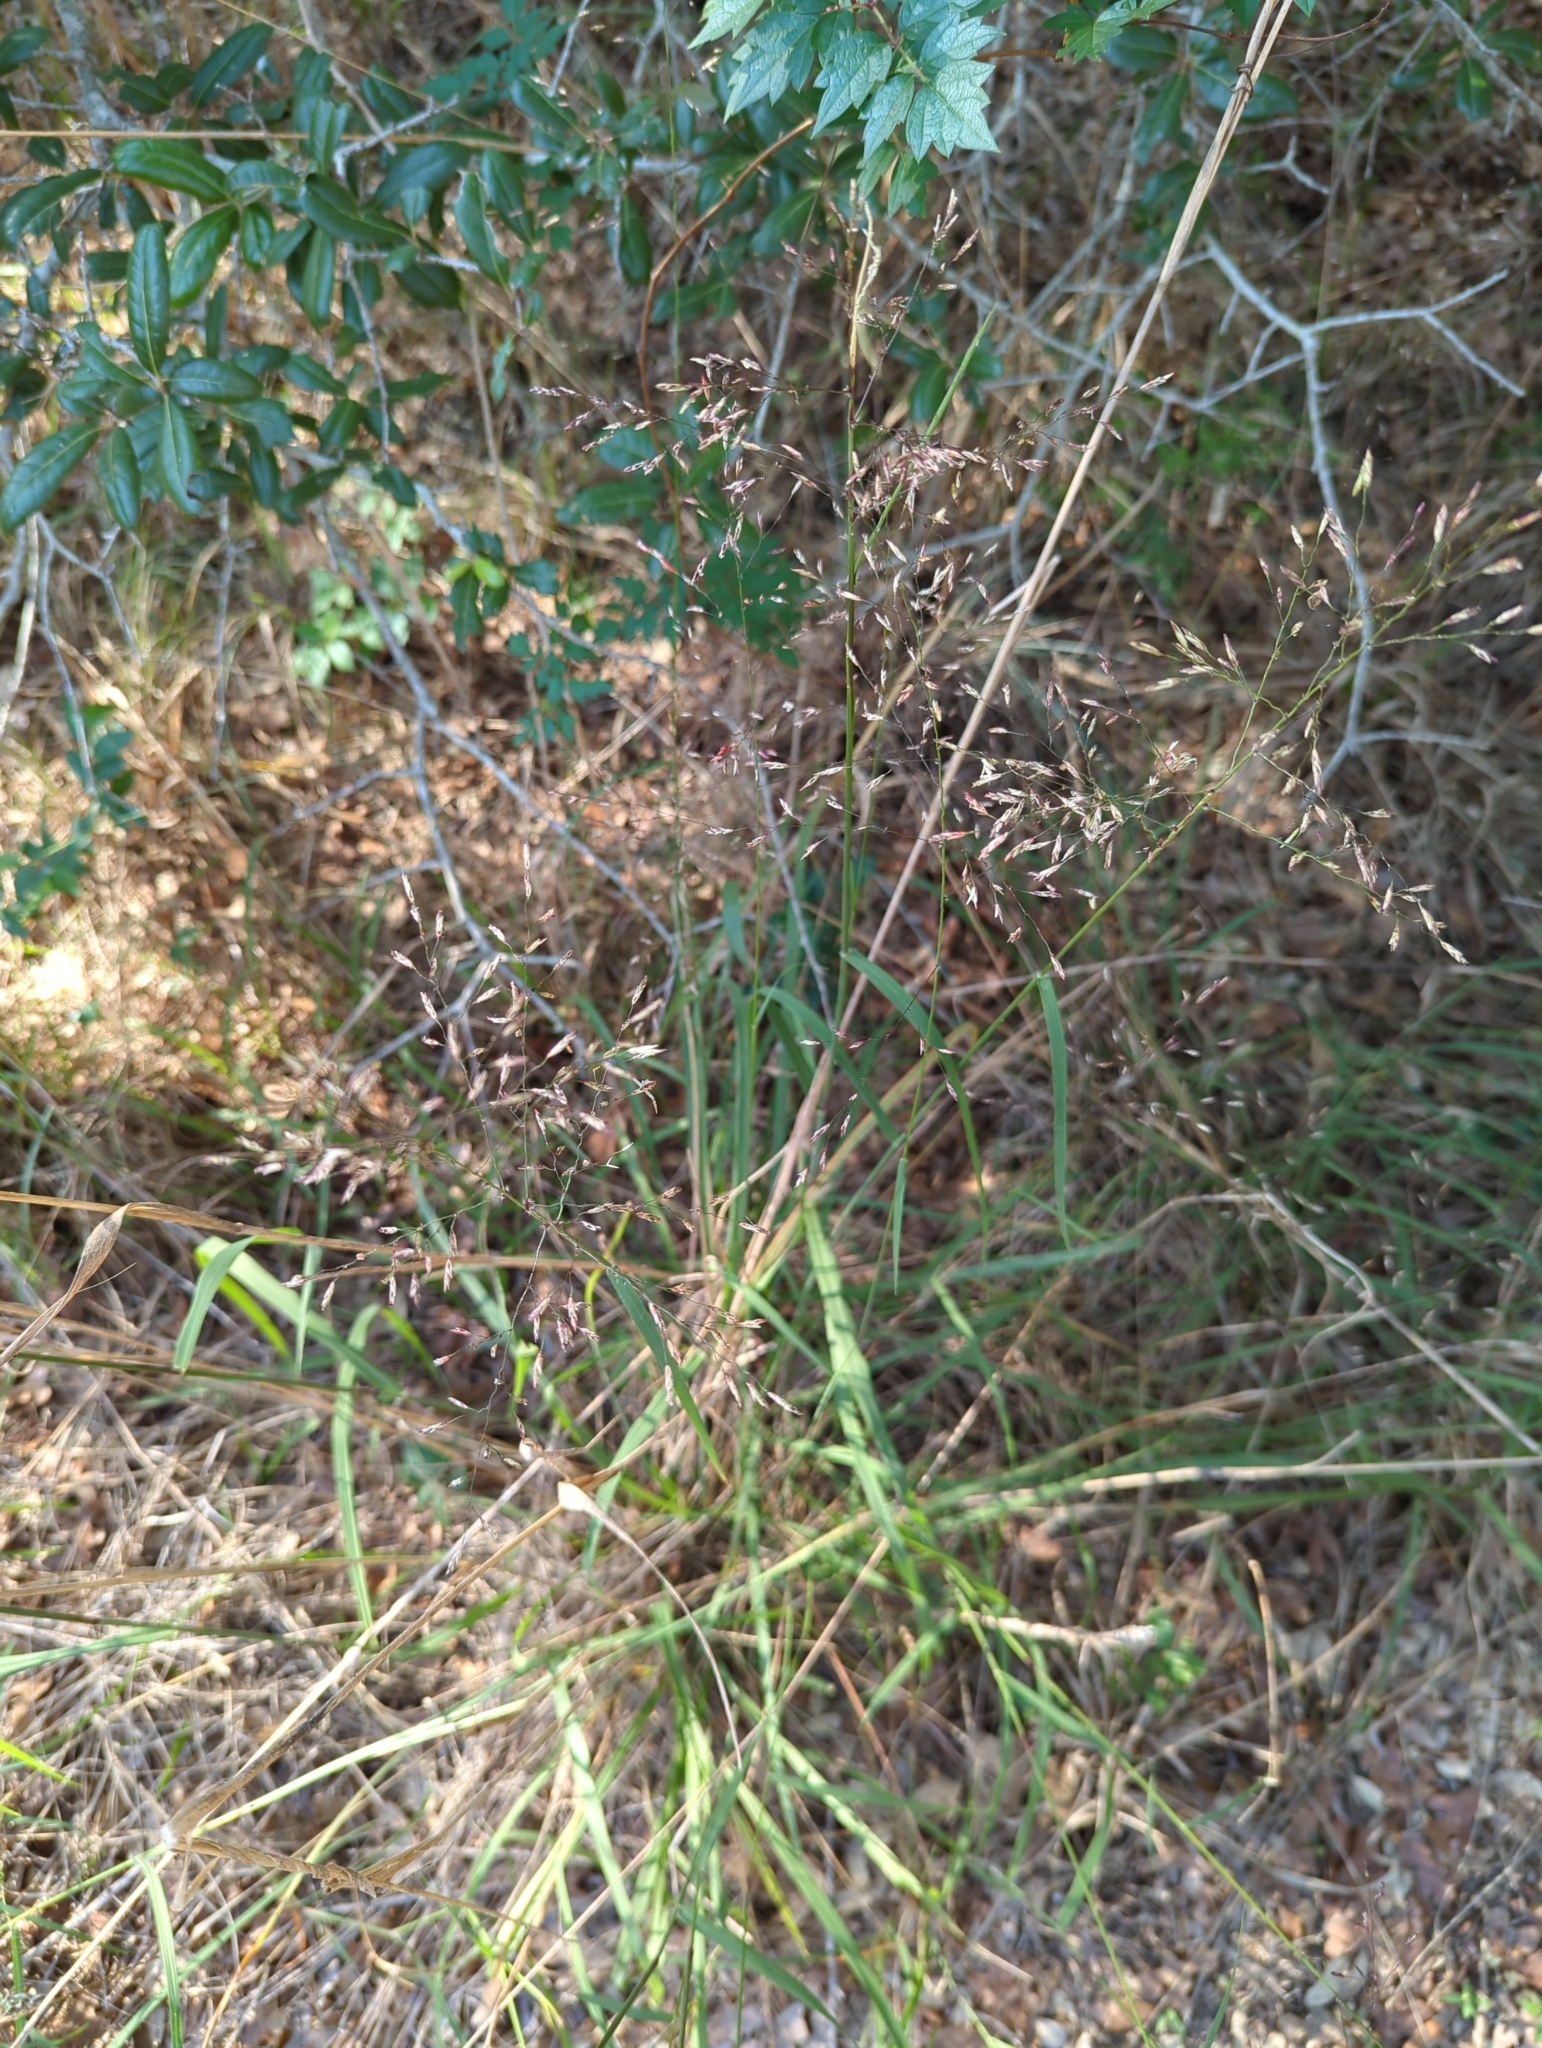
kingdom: Plantae
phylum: Tracheophyta
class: Liliopsida
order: Poales
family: Poaceae
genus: Tridens
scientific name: Tridens chapmanii
